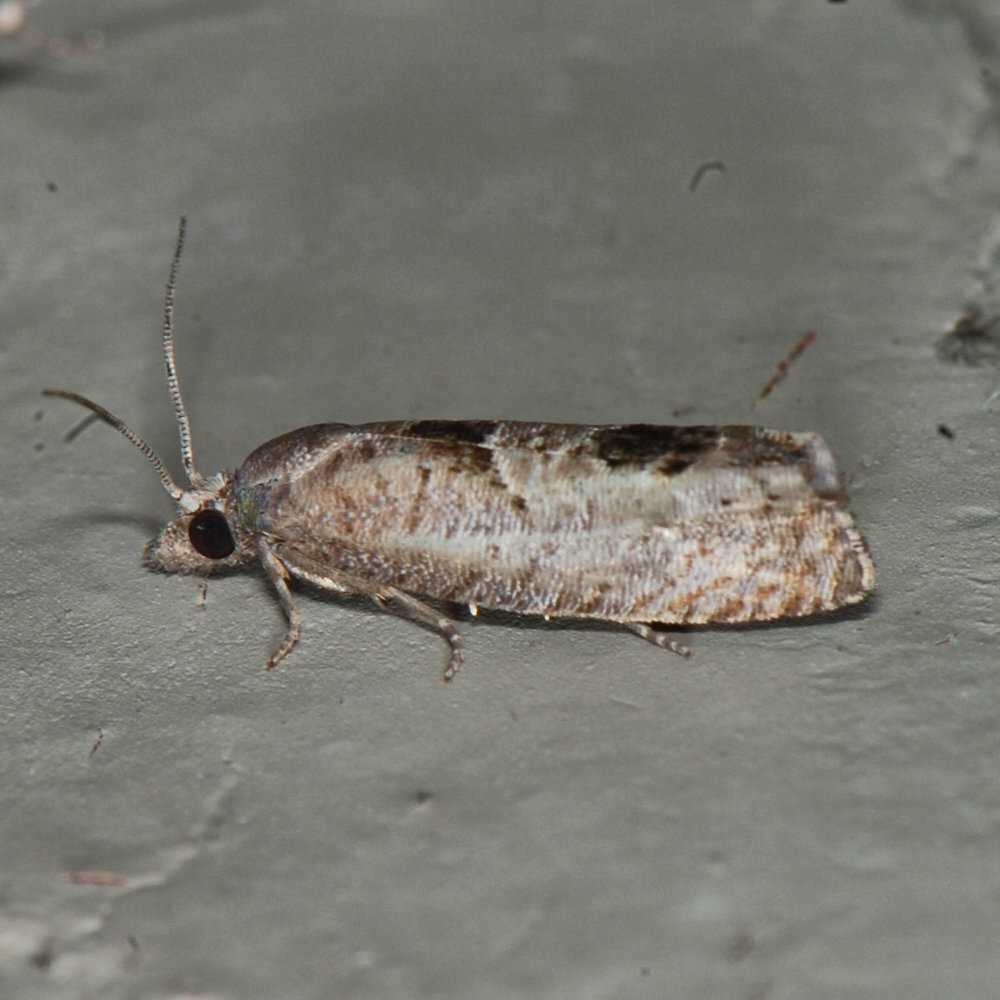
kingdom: Animalia
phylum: Arthropoda
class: Insecta
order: Lepidoptera
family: Tortricidae
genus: Eucosma
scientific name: Eucosma tomonana
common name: Aster-head eucosma moth
